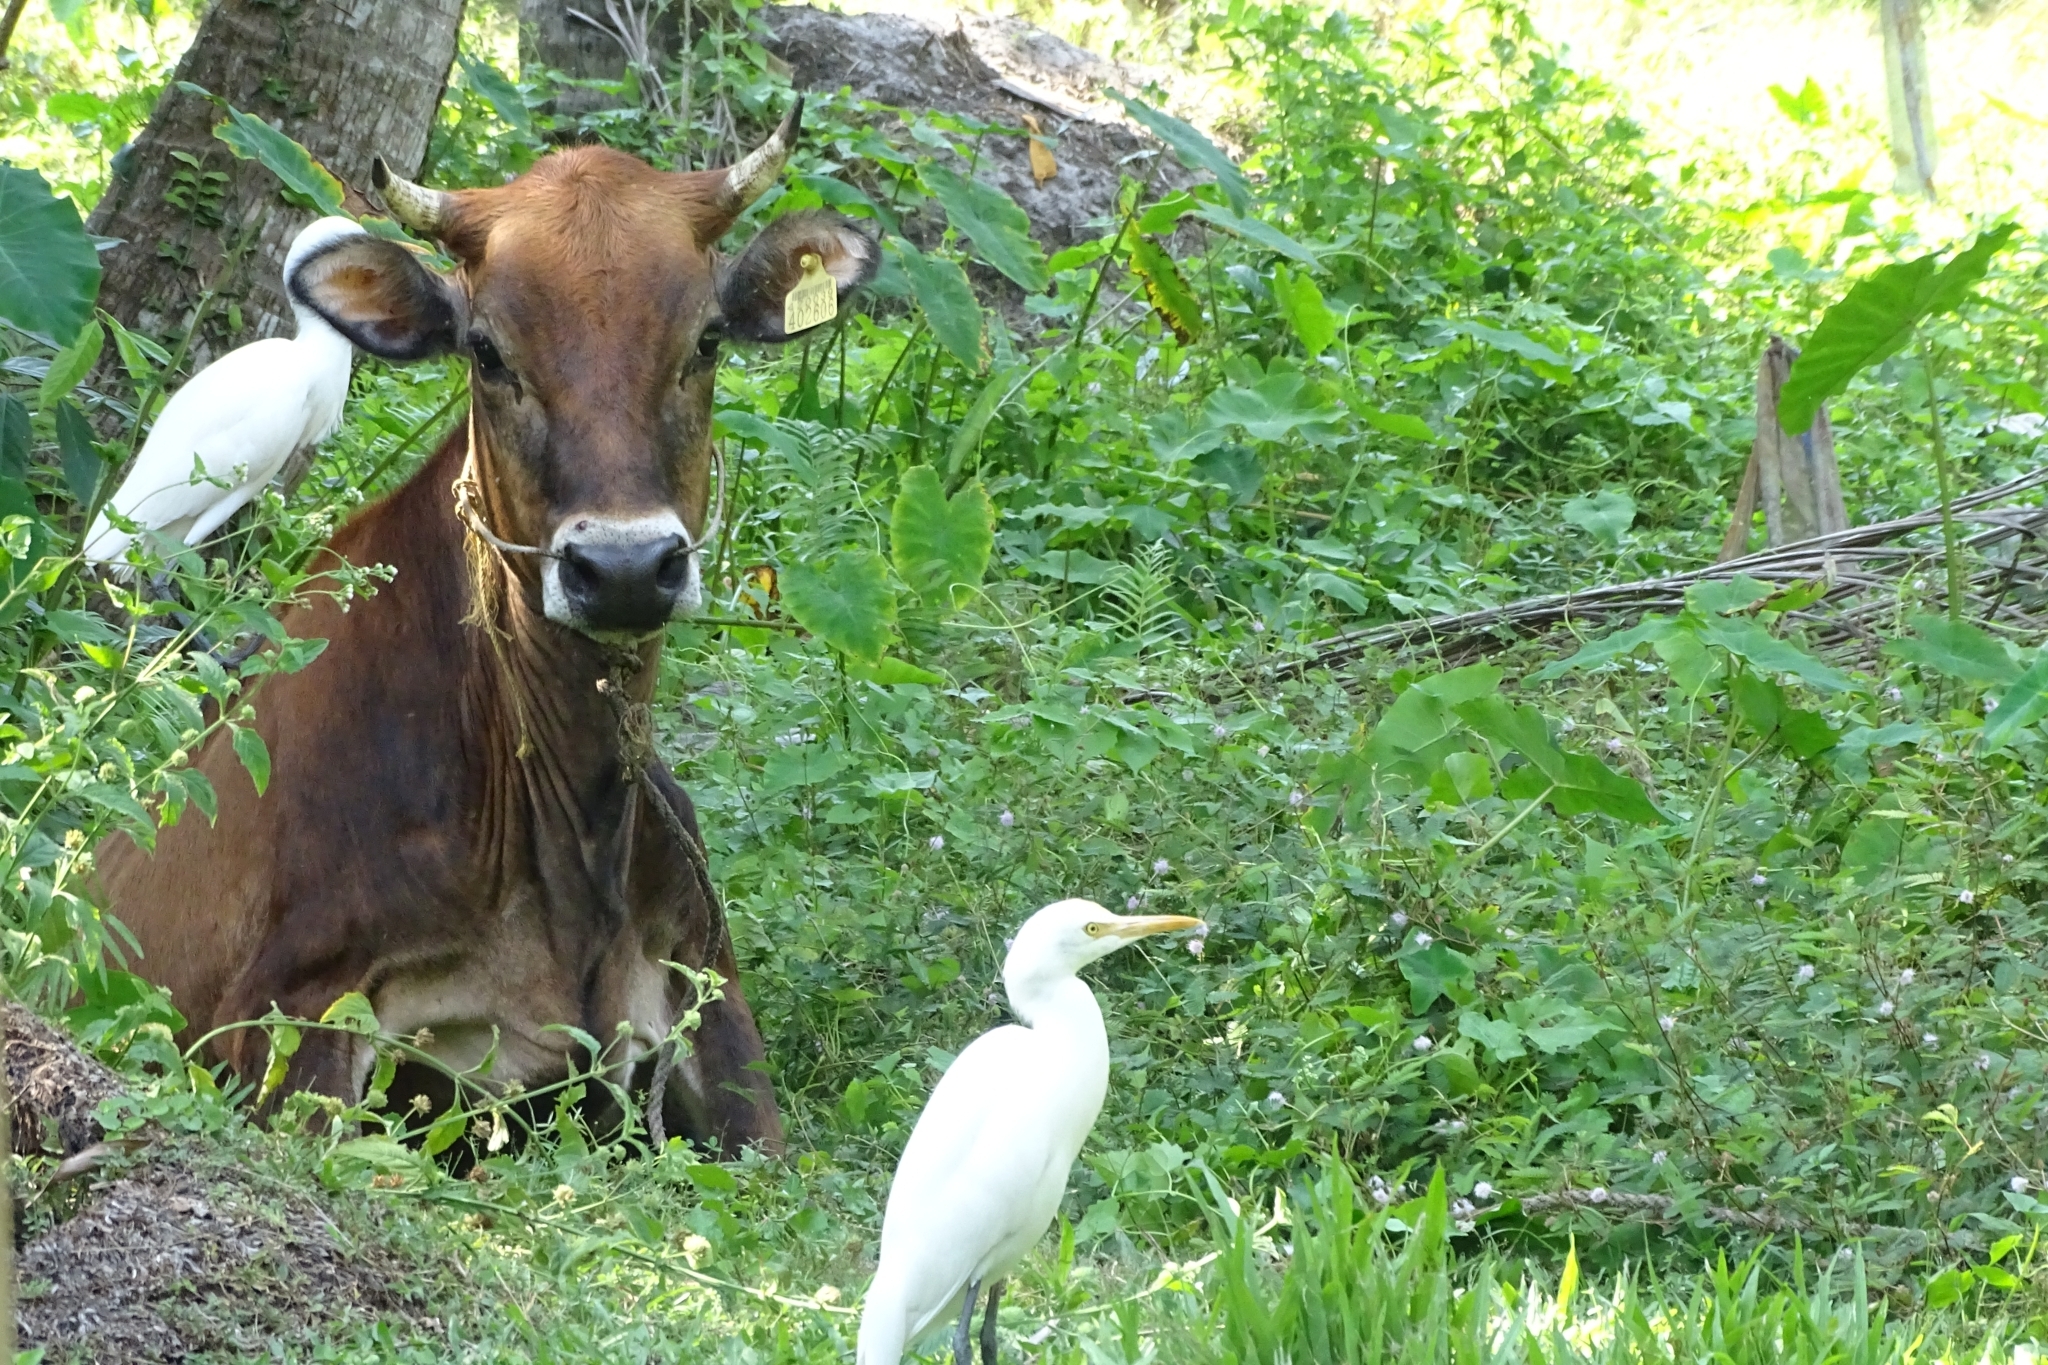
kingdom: Animalia
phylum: Chordata
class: Aves
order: Pelecaniformes
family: Ardeidae
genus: Bubulcus
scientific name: Bubulcus coromandus
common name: Eastern cattle egret
